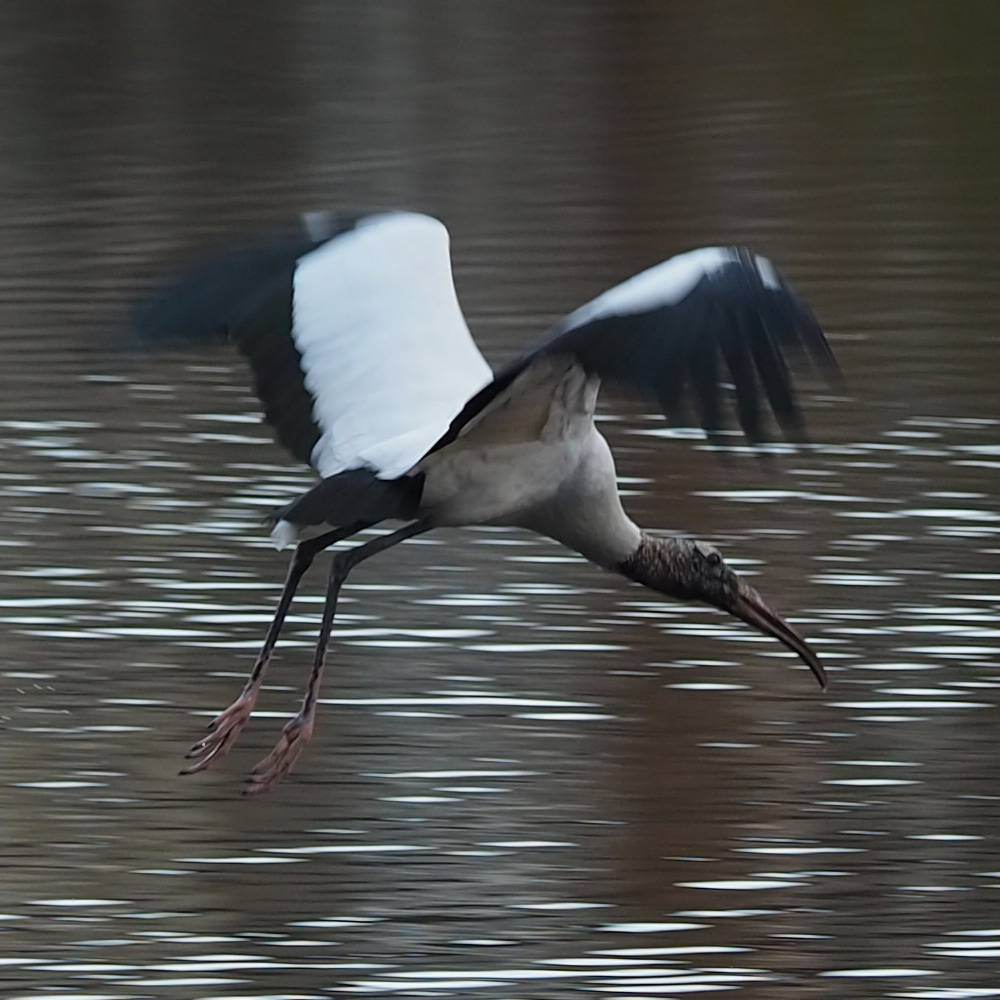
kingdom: Animalia
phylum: Chordata
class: Aves
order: Ciconiiformes
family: Ciconiidae
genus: Mycteria
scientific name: Mycteria americana
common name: Wood stork
